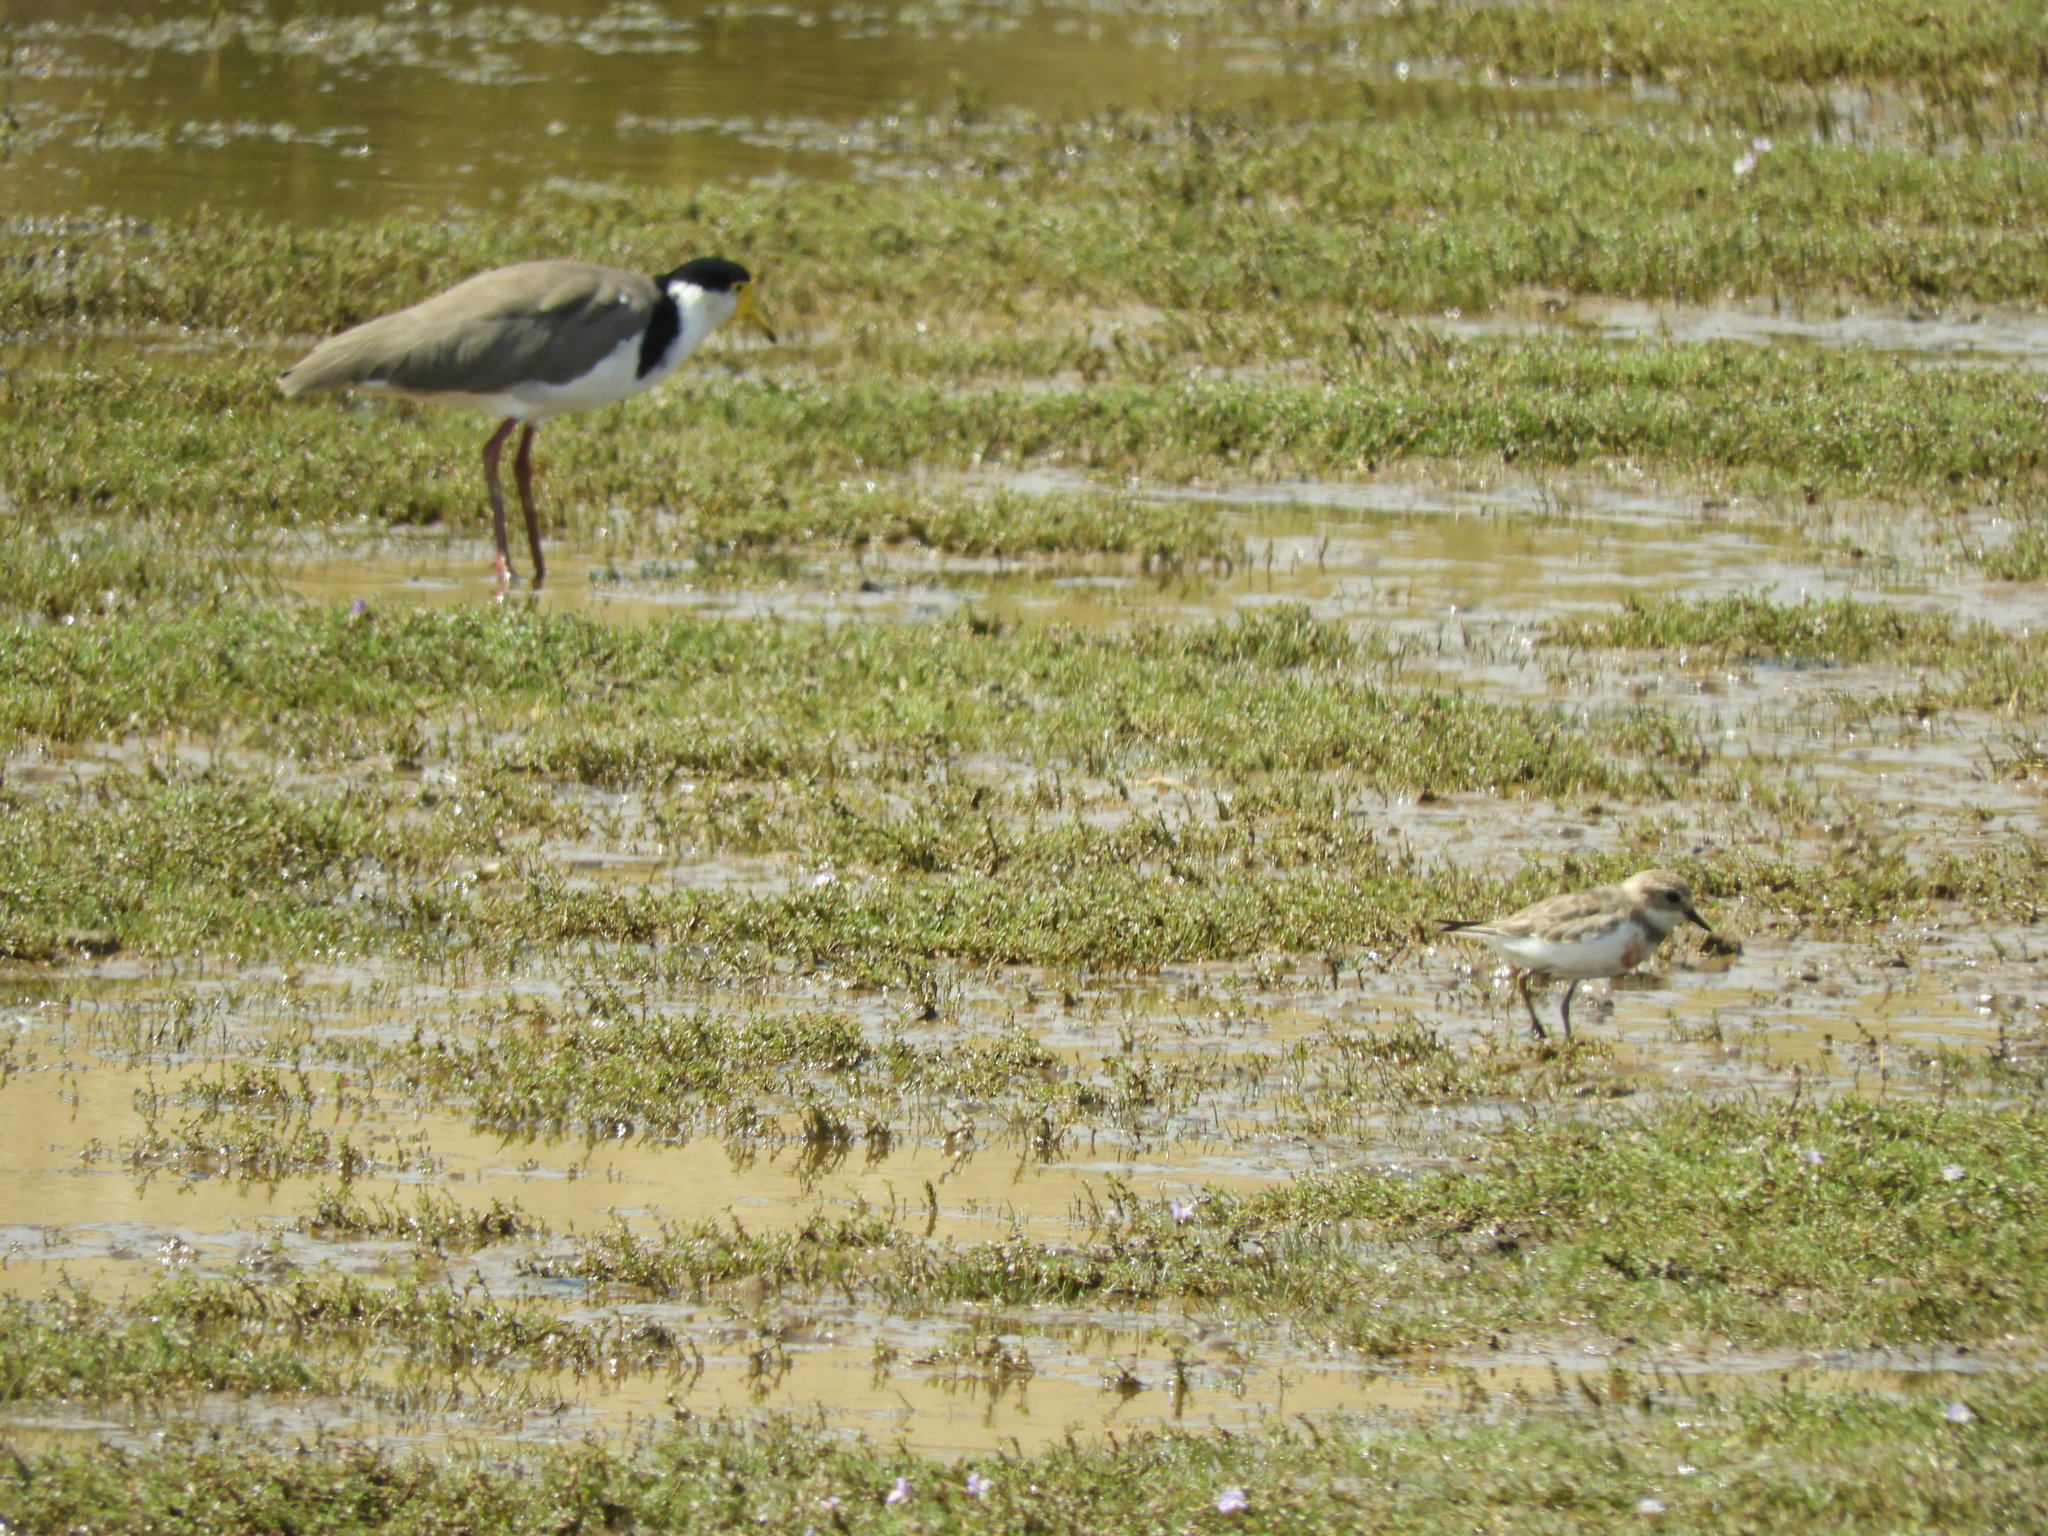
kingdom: Animalia
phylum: Chordata
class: Aves
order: Charadriiformes
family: Charadriidae
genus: Anarhynchus
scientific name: Anarhynchus
